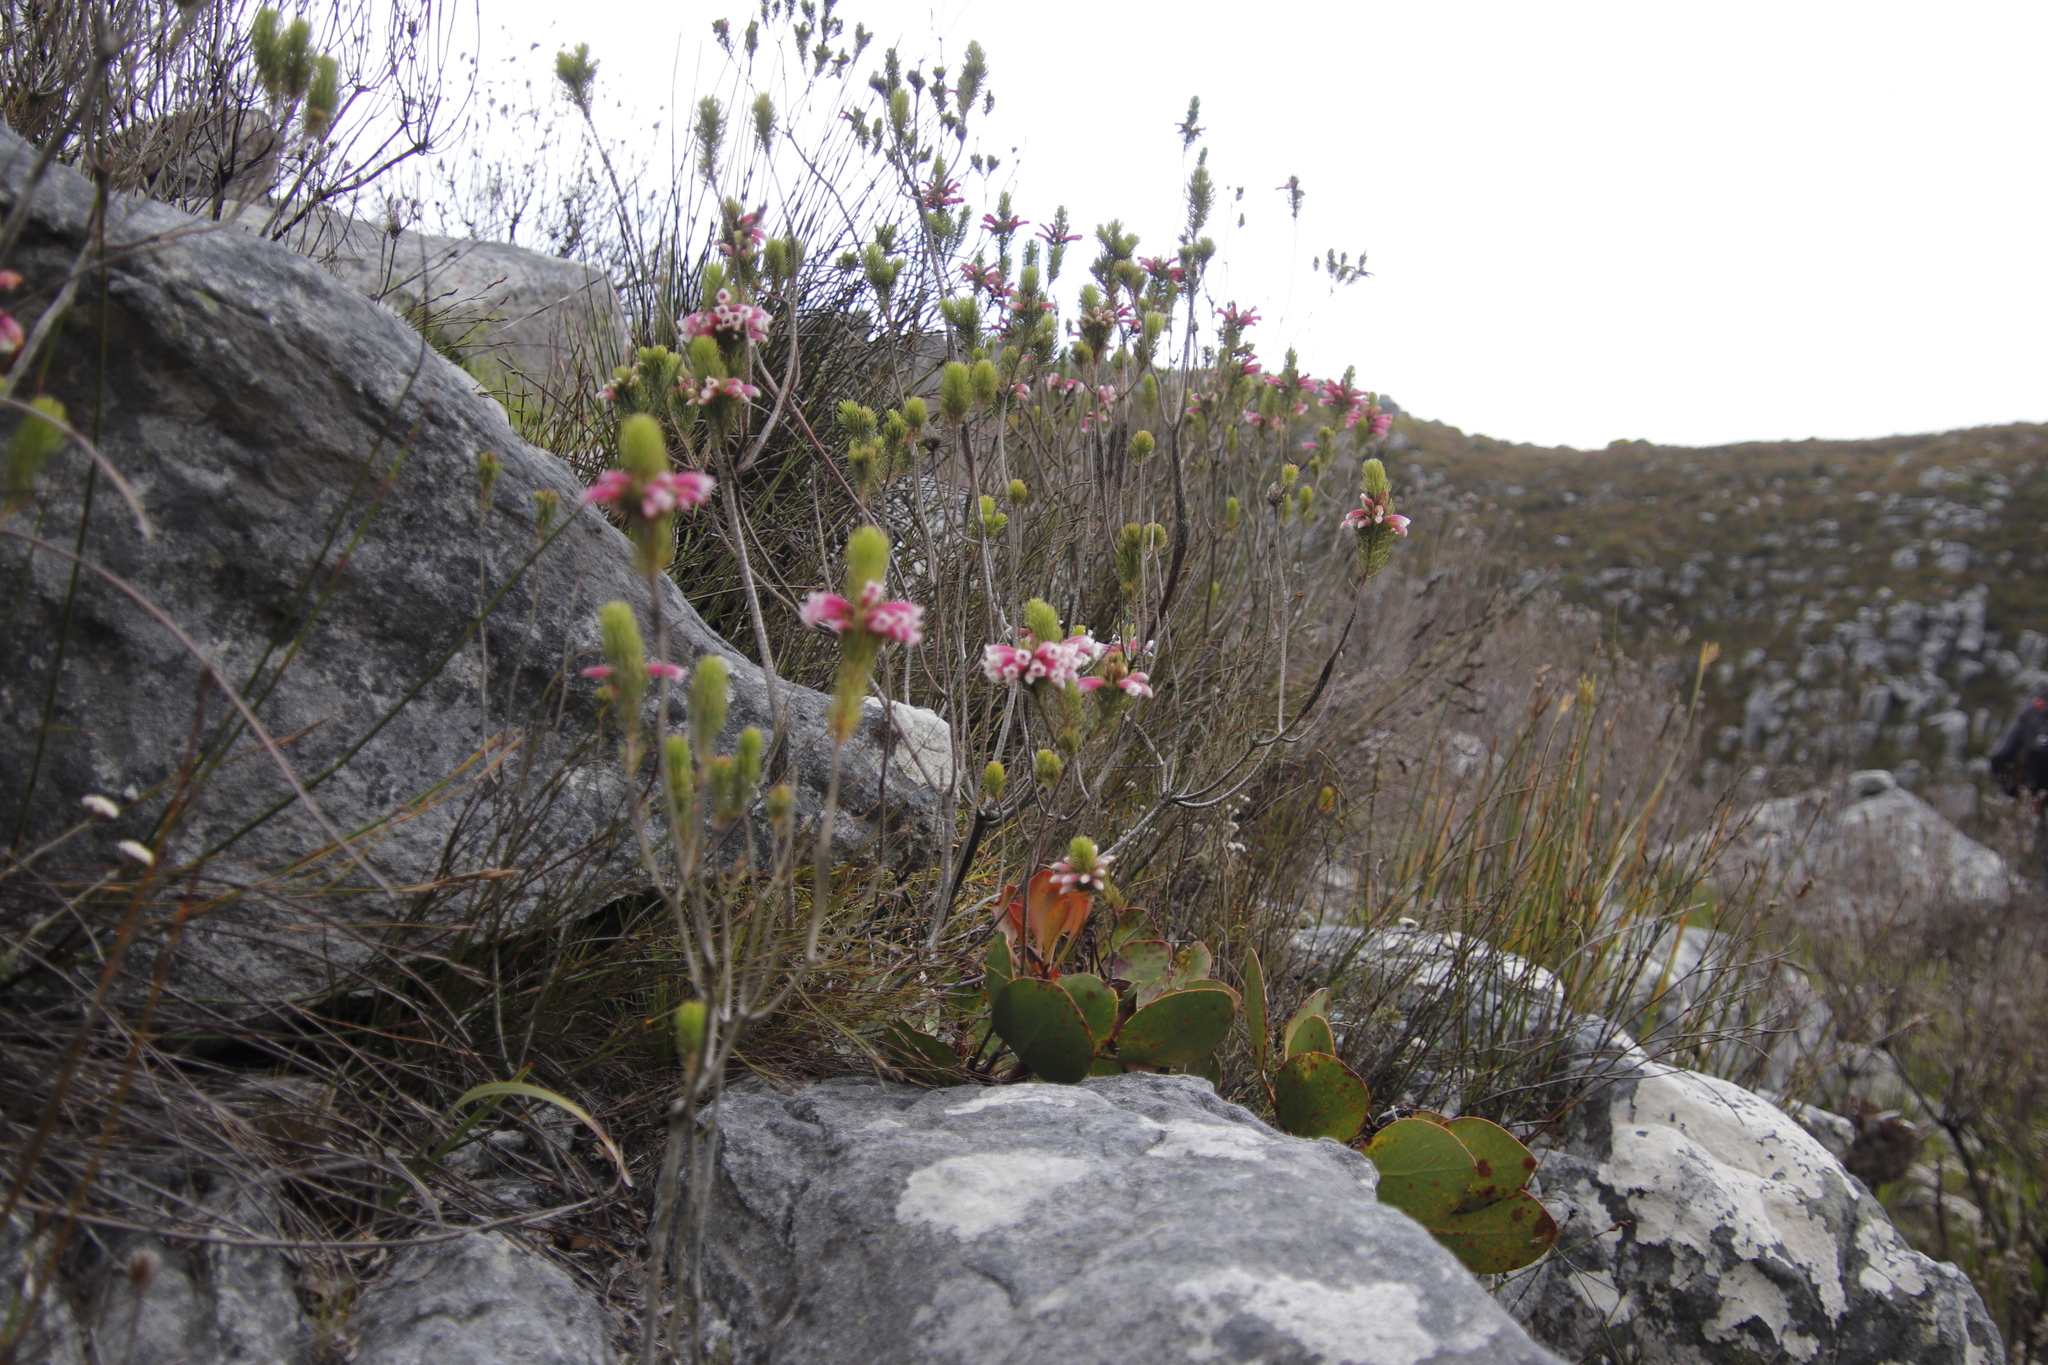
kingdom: Plantae
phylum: Tracheophyta
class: Magnoliopsida
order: Ericales
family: Ericaceae
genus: Erica
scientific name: Erica viscaria
